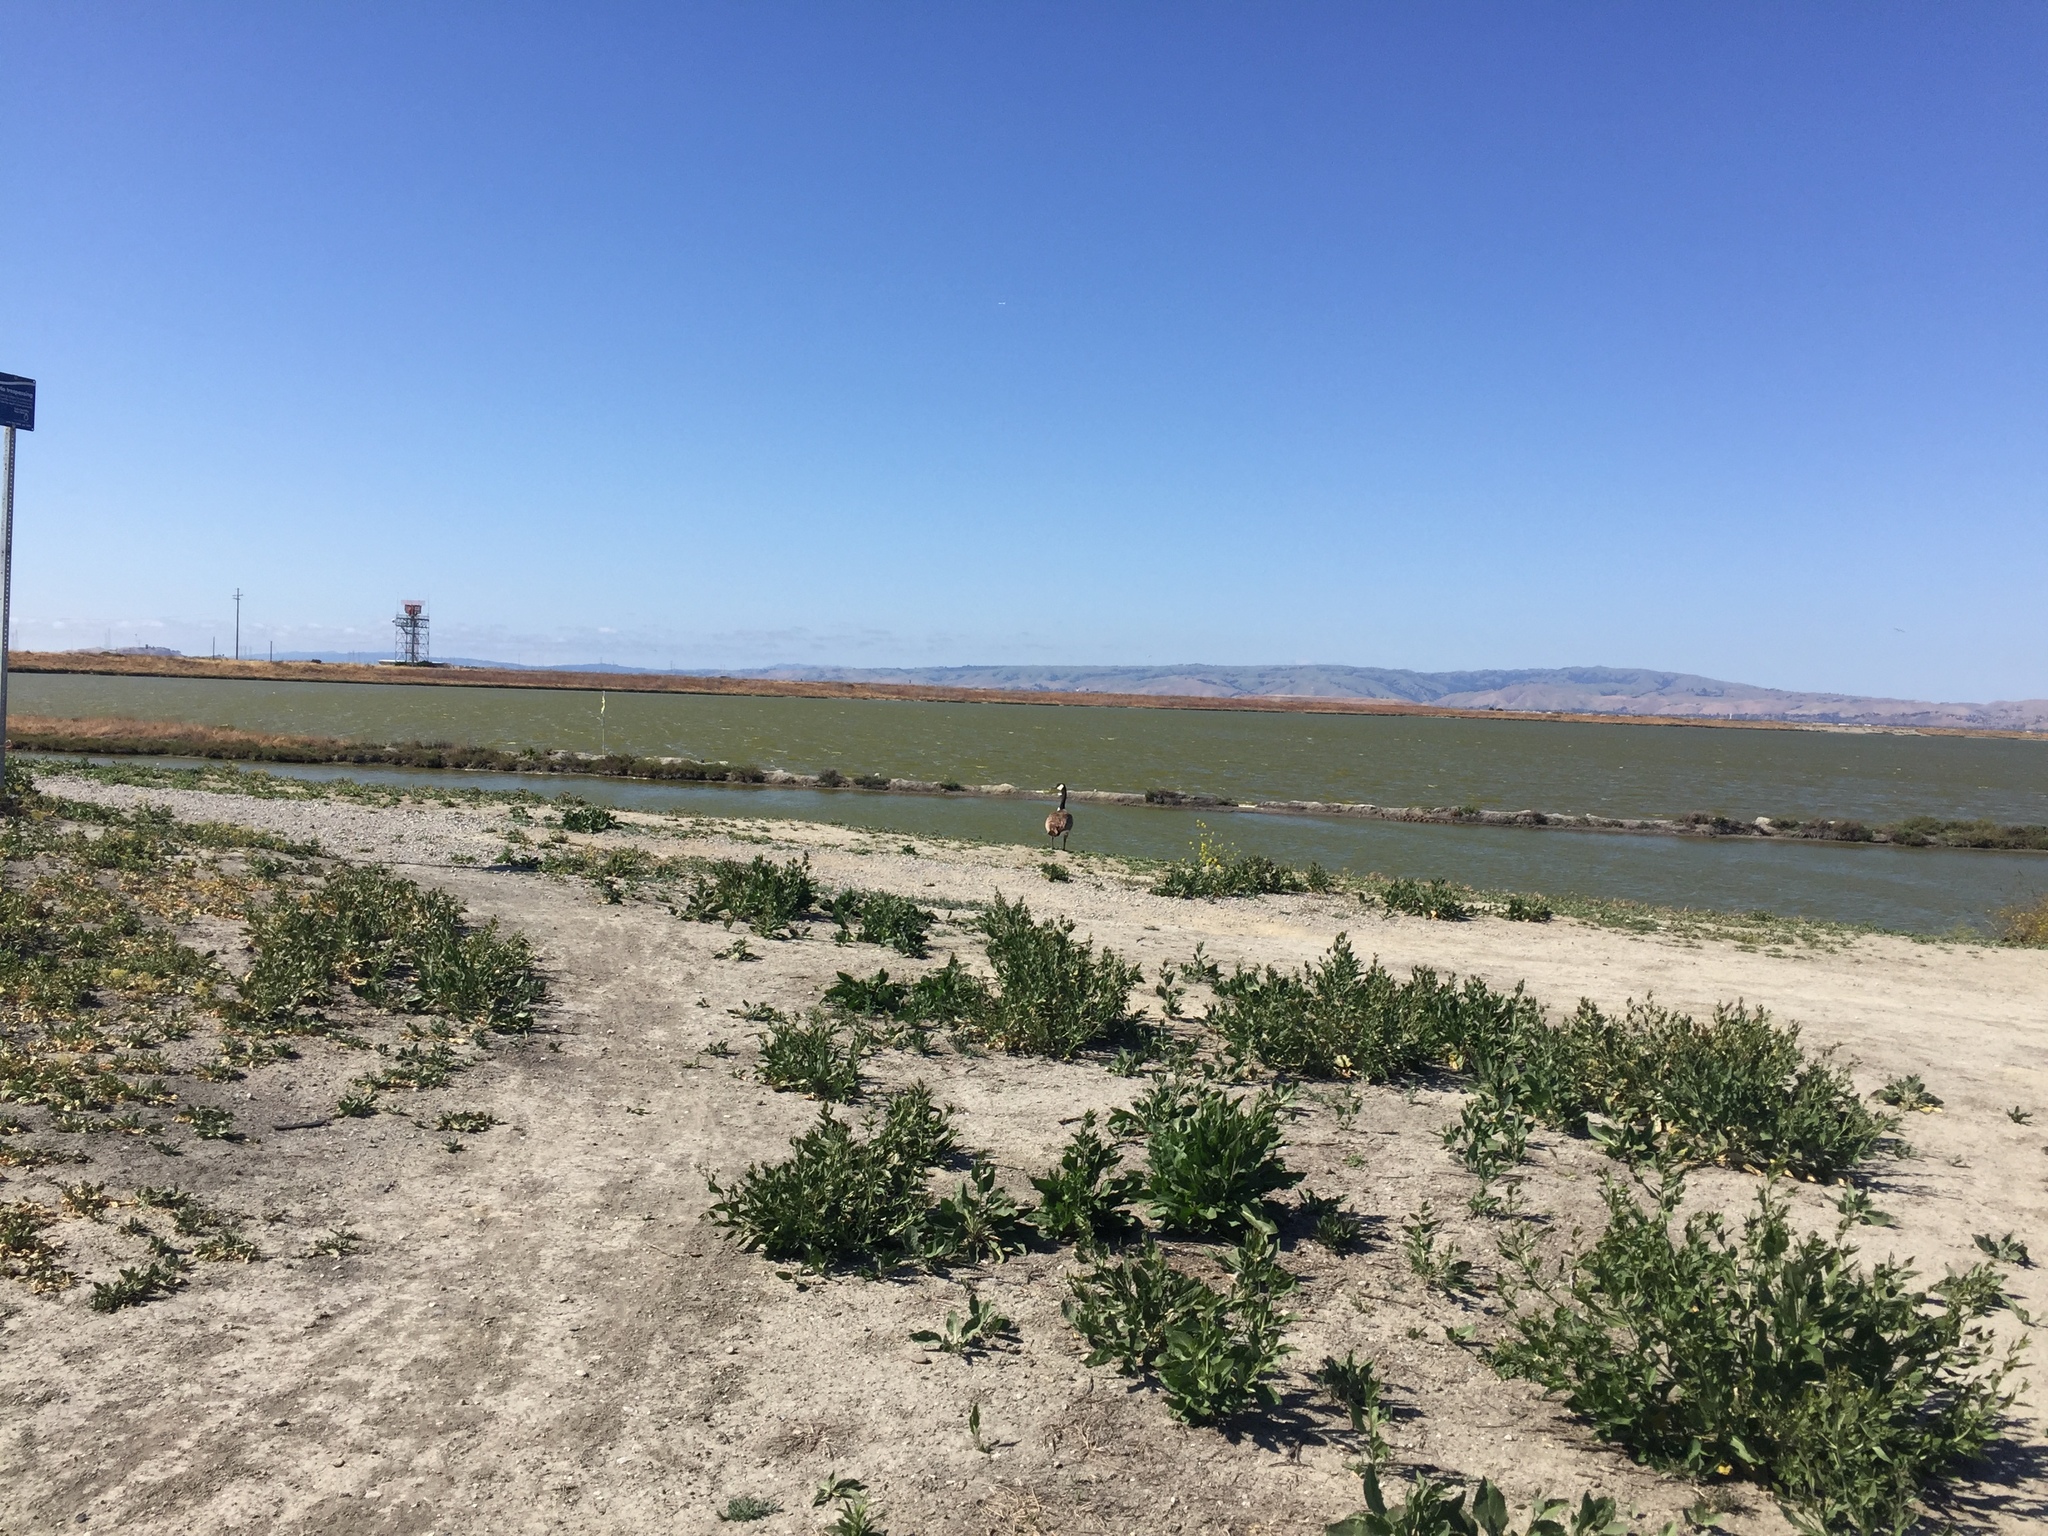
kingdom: Animalia
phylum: Chordata
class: Aves
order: Anseriformes
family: Anatidae
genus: Branta
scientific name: Branta canadensis
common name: Canada goose
